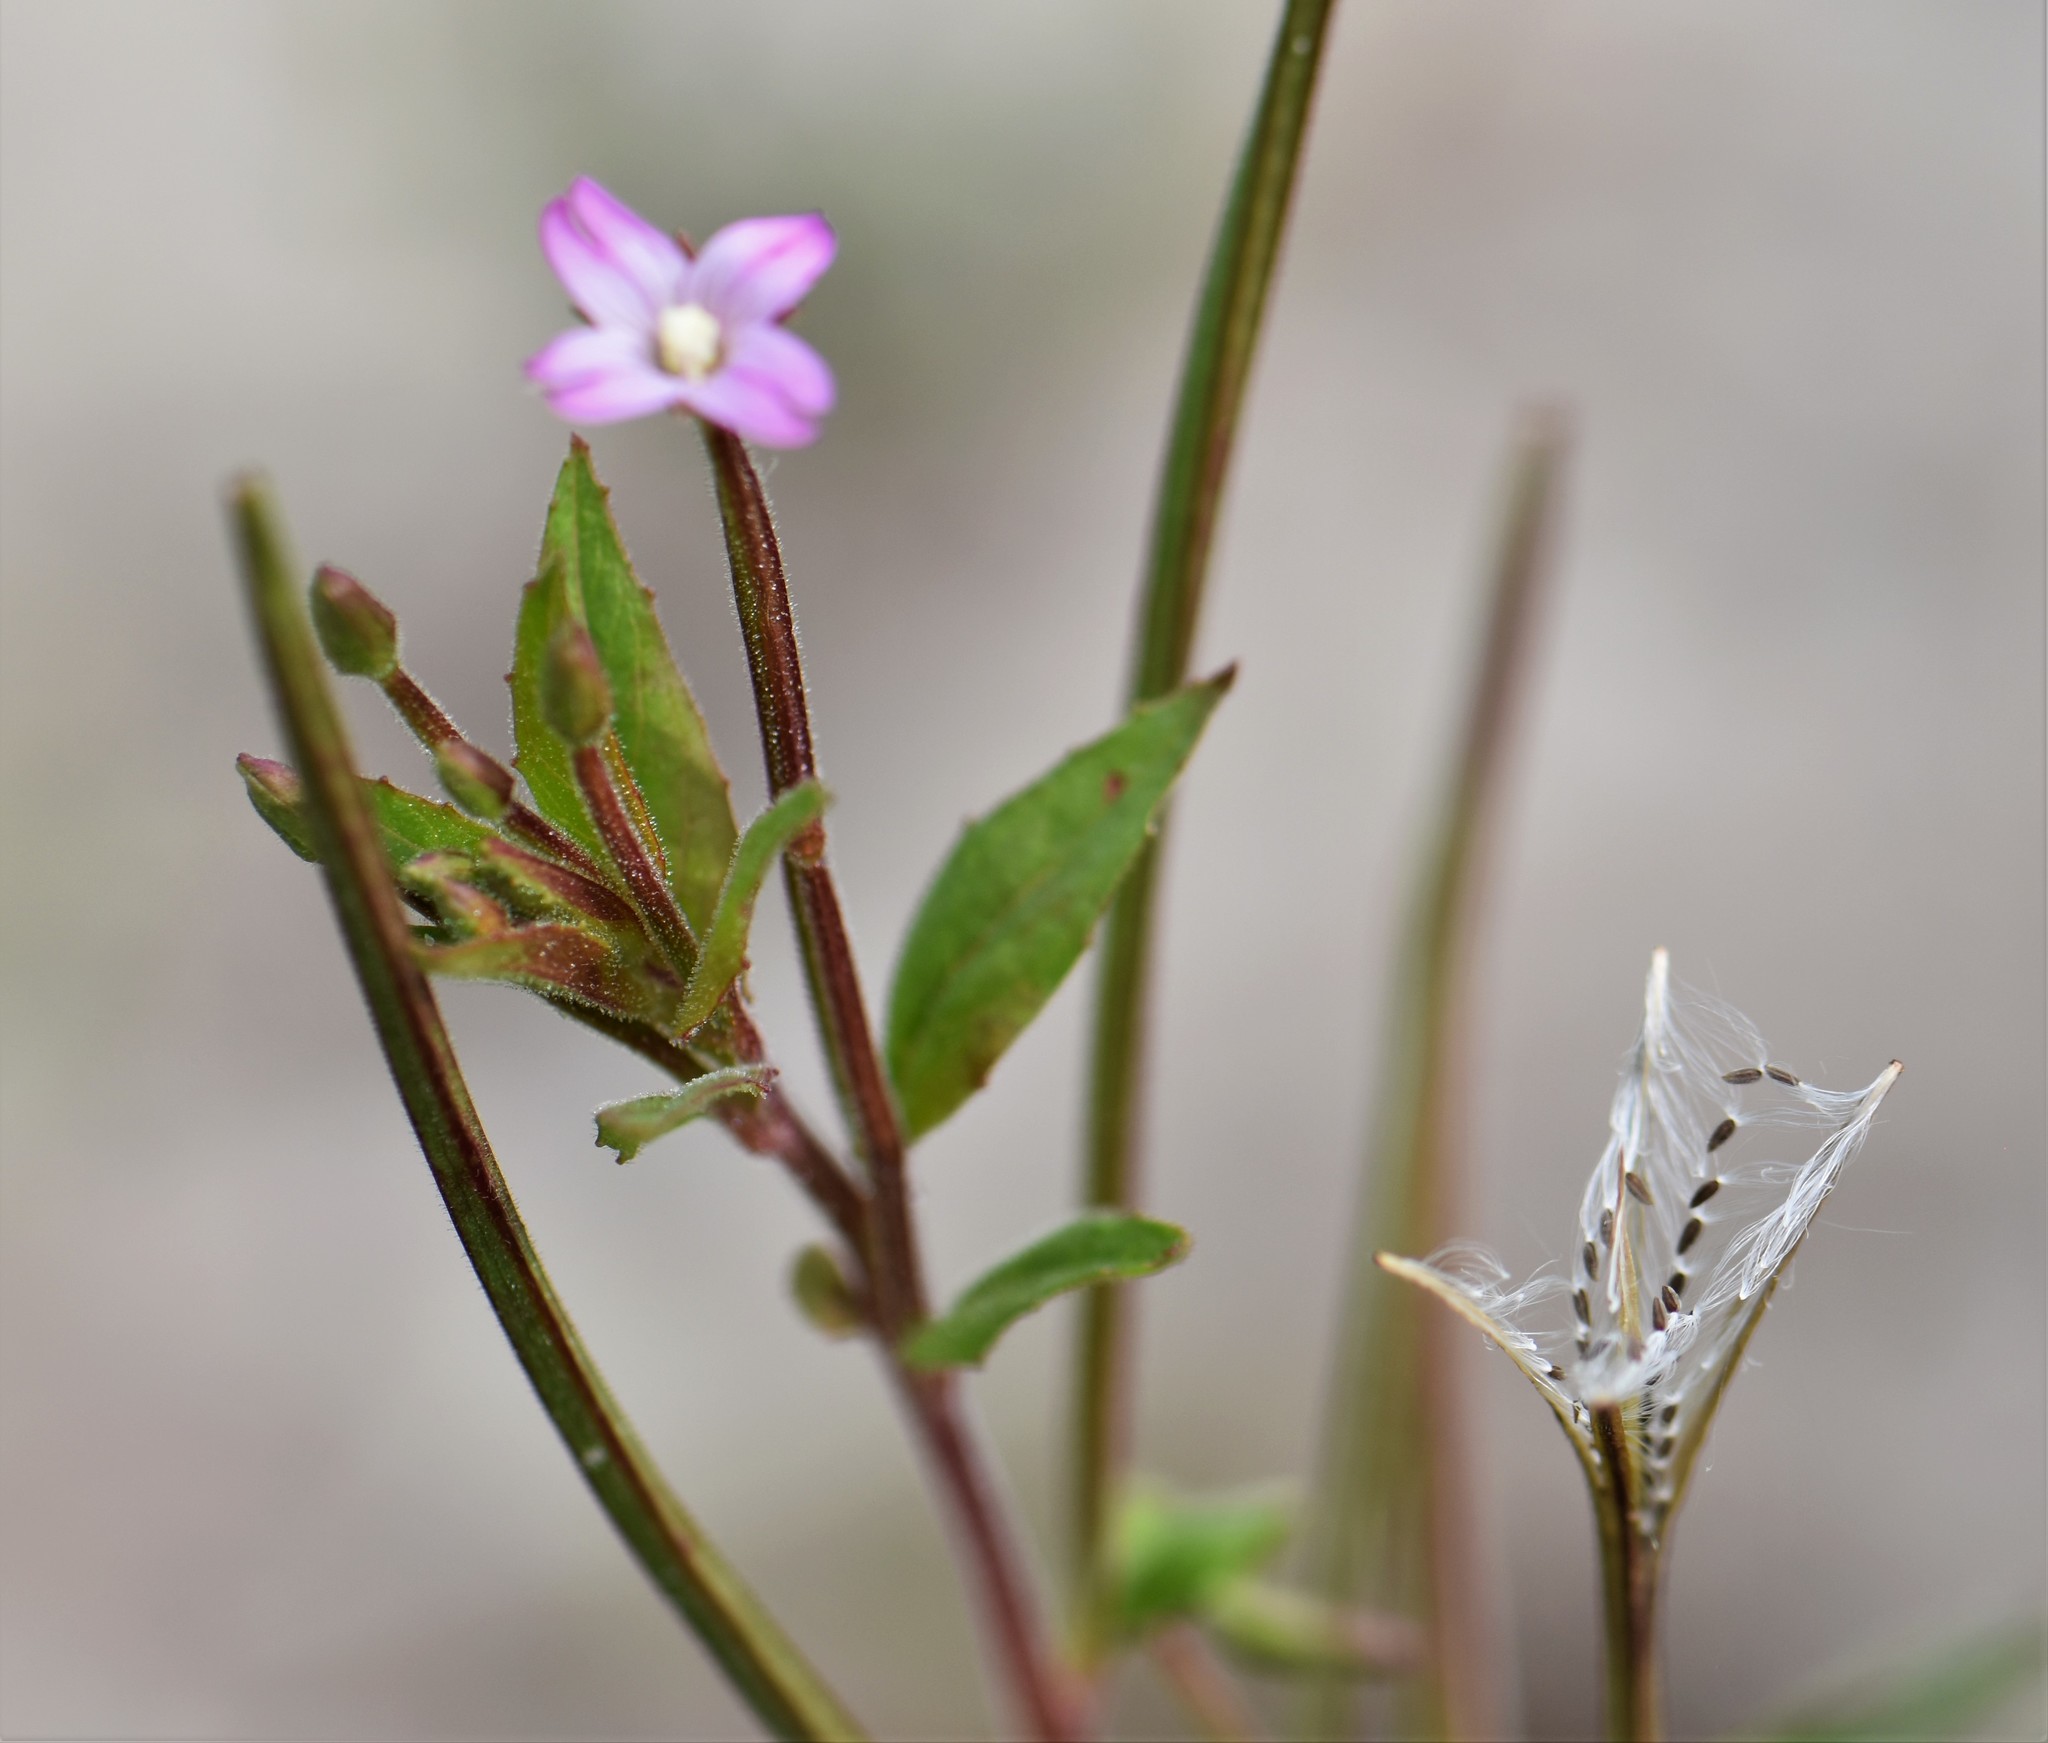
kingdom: Plantae
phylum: Tracheophyta
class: Magnoliopsida
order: Myrtales
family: Onagraceae
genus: Epilobium
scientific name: Epilobium ciliatum
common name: American willowherb
